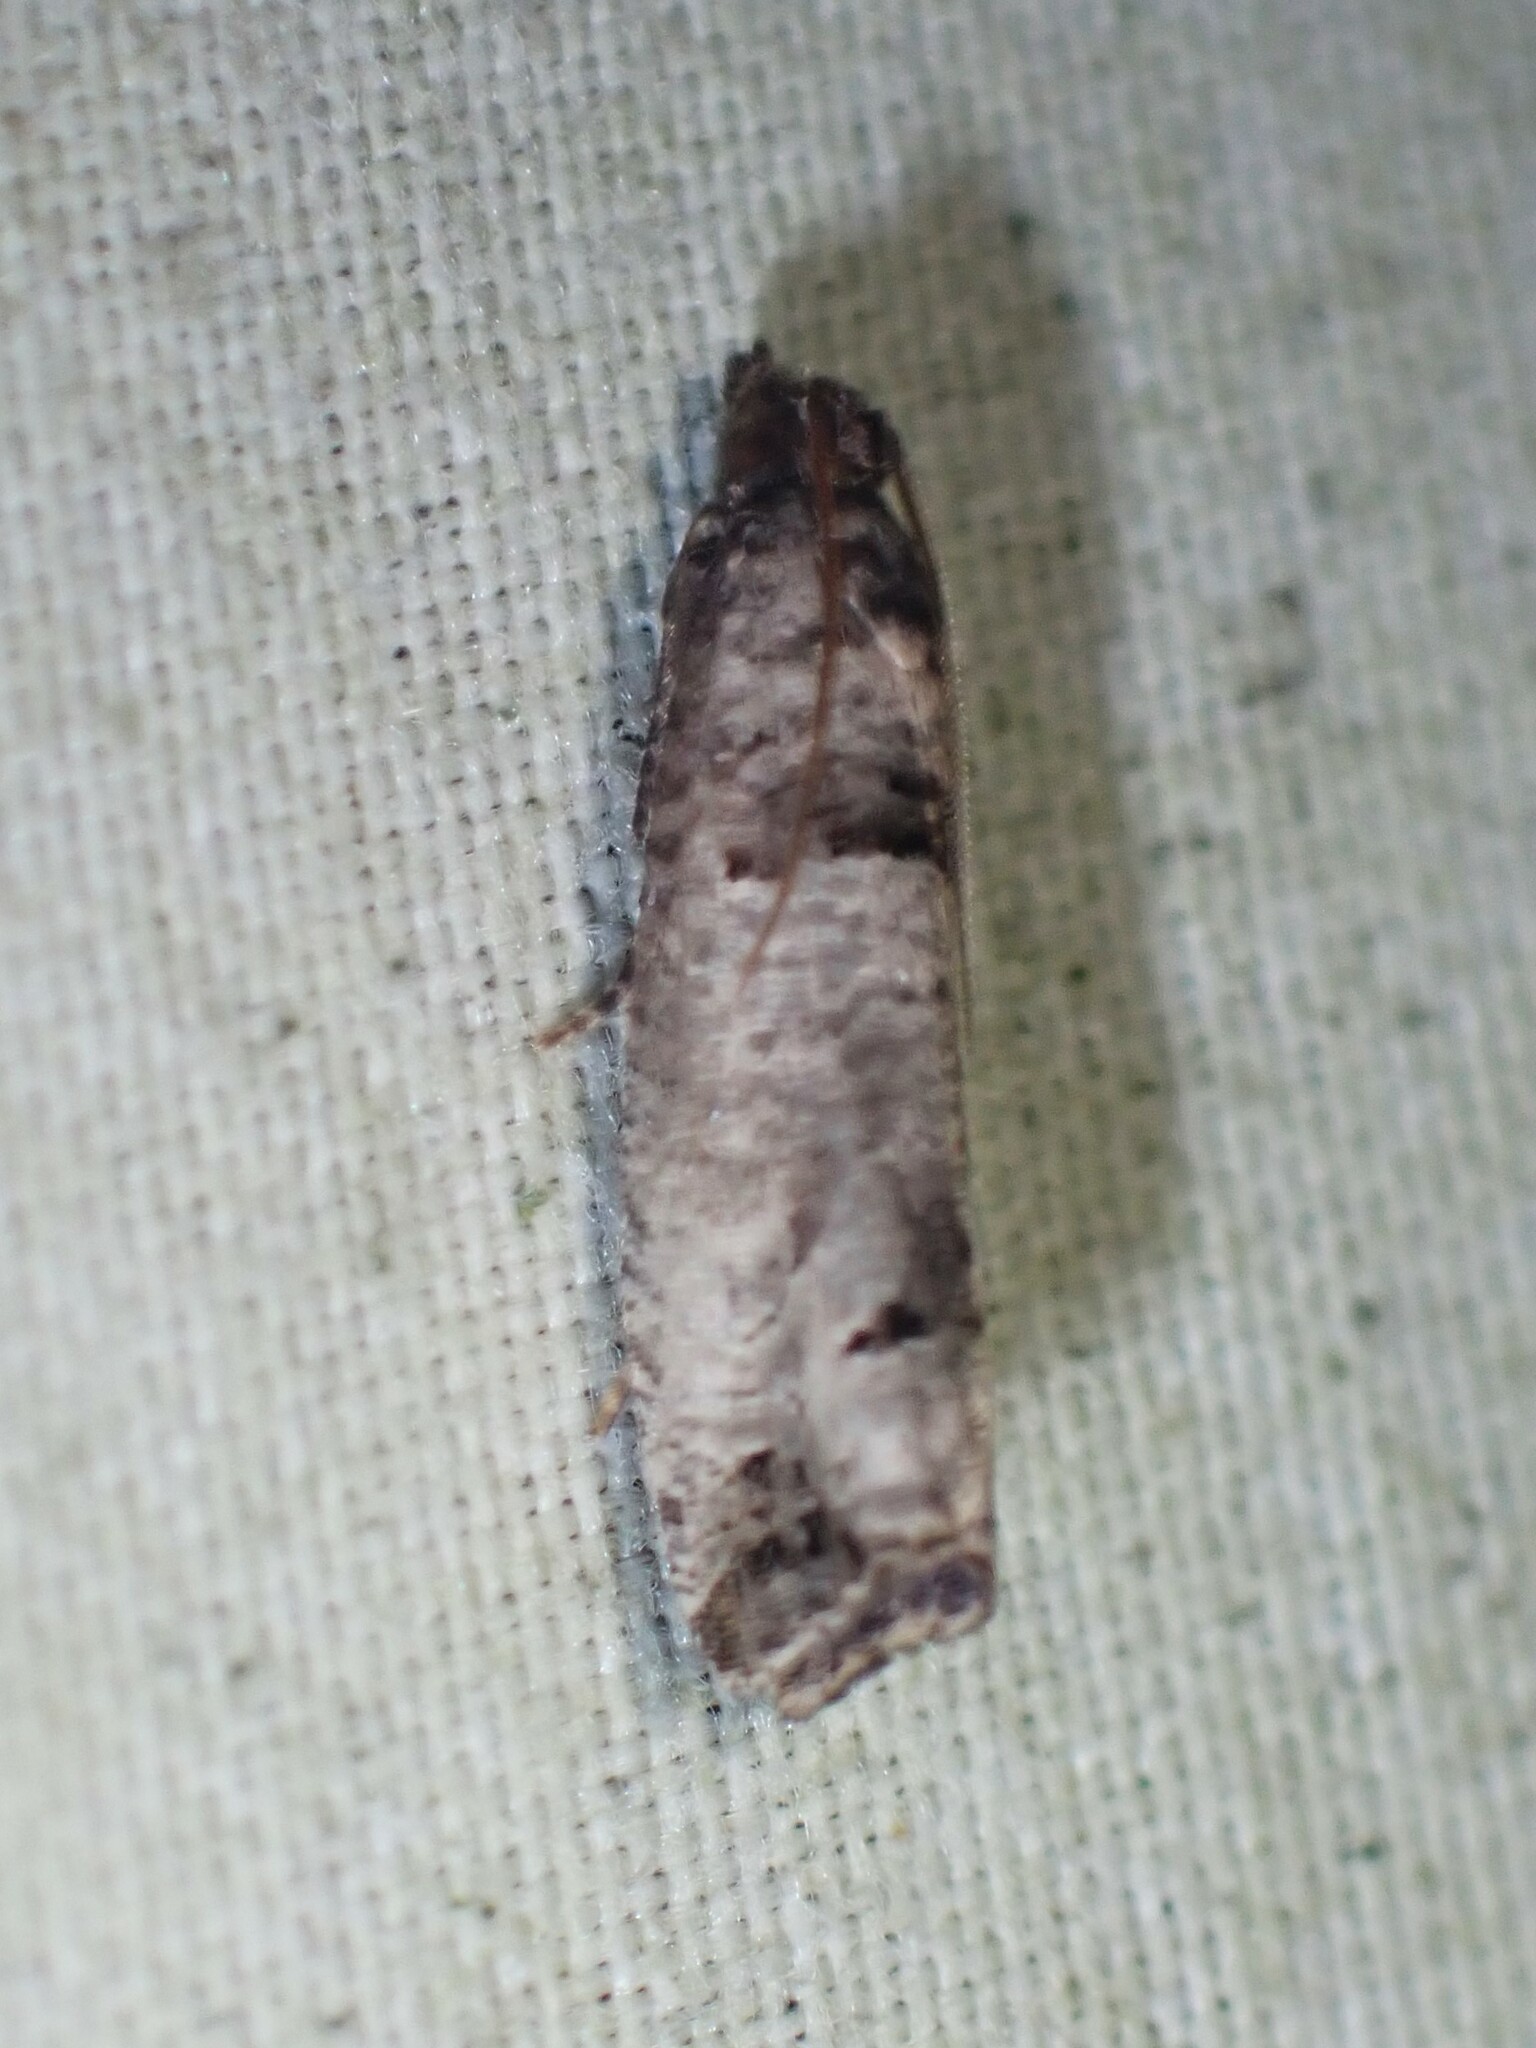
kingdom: Animalia
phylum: Arthropoda
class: Insecta
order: Lepidoptera
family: Tortricidae
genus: Notocelia
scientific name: Notocelia culminana
